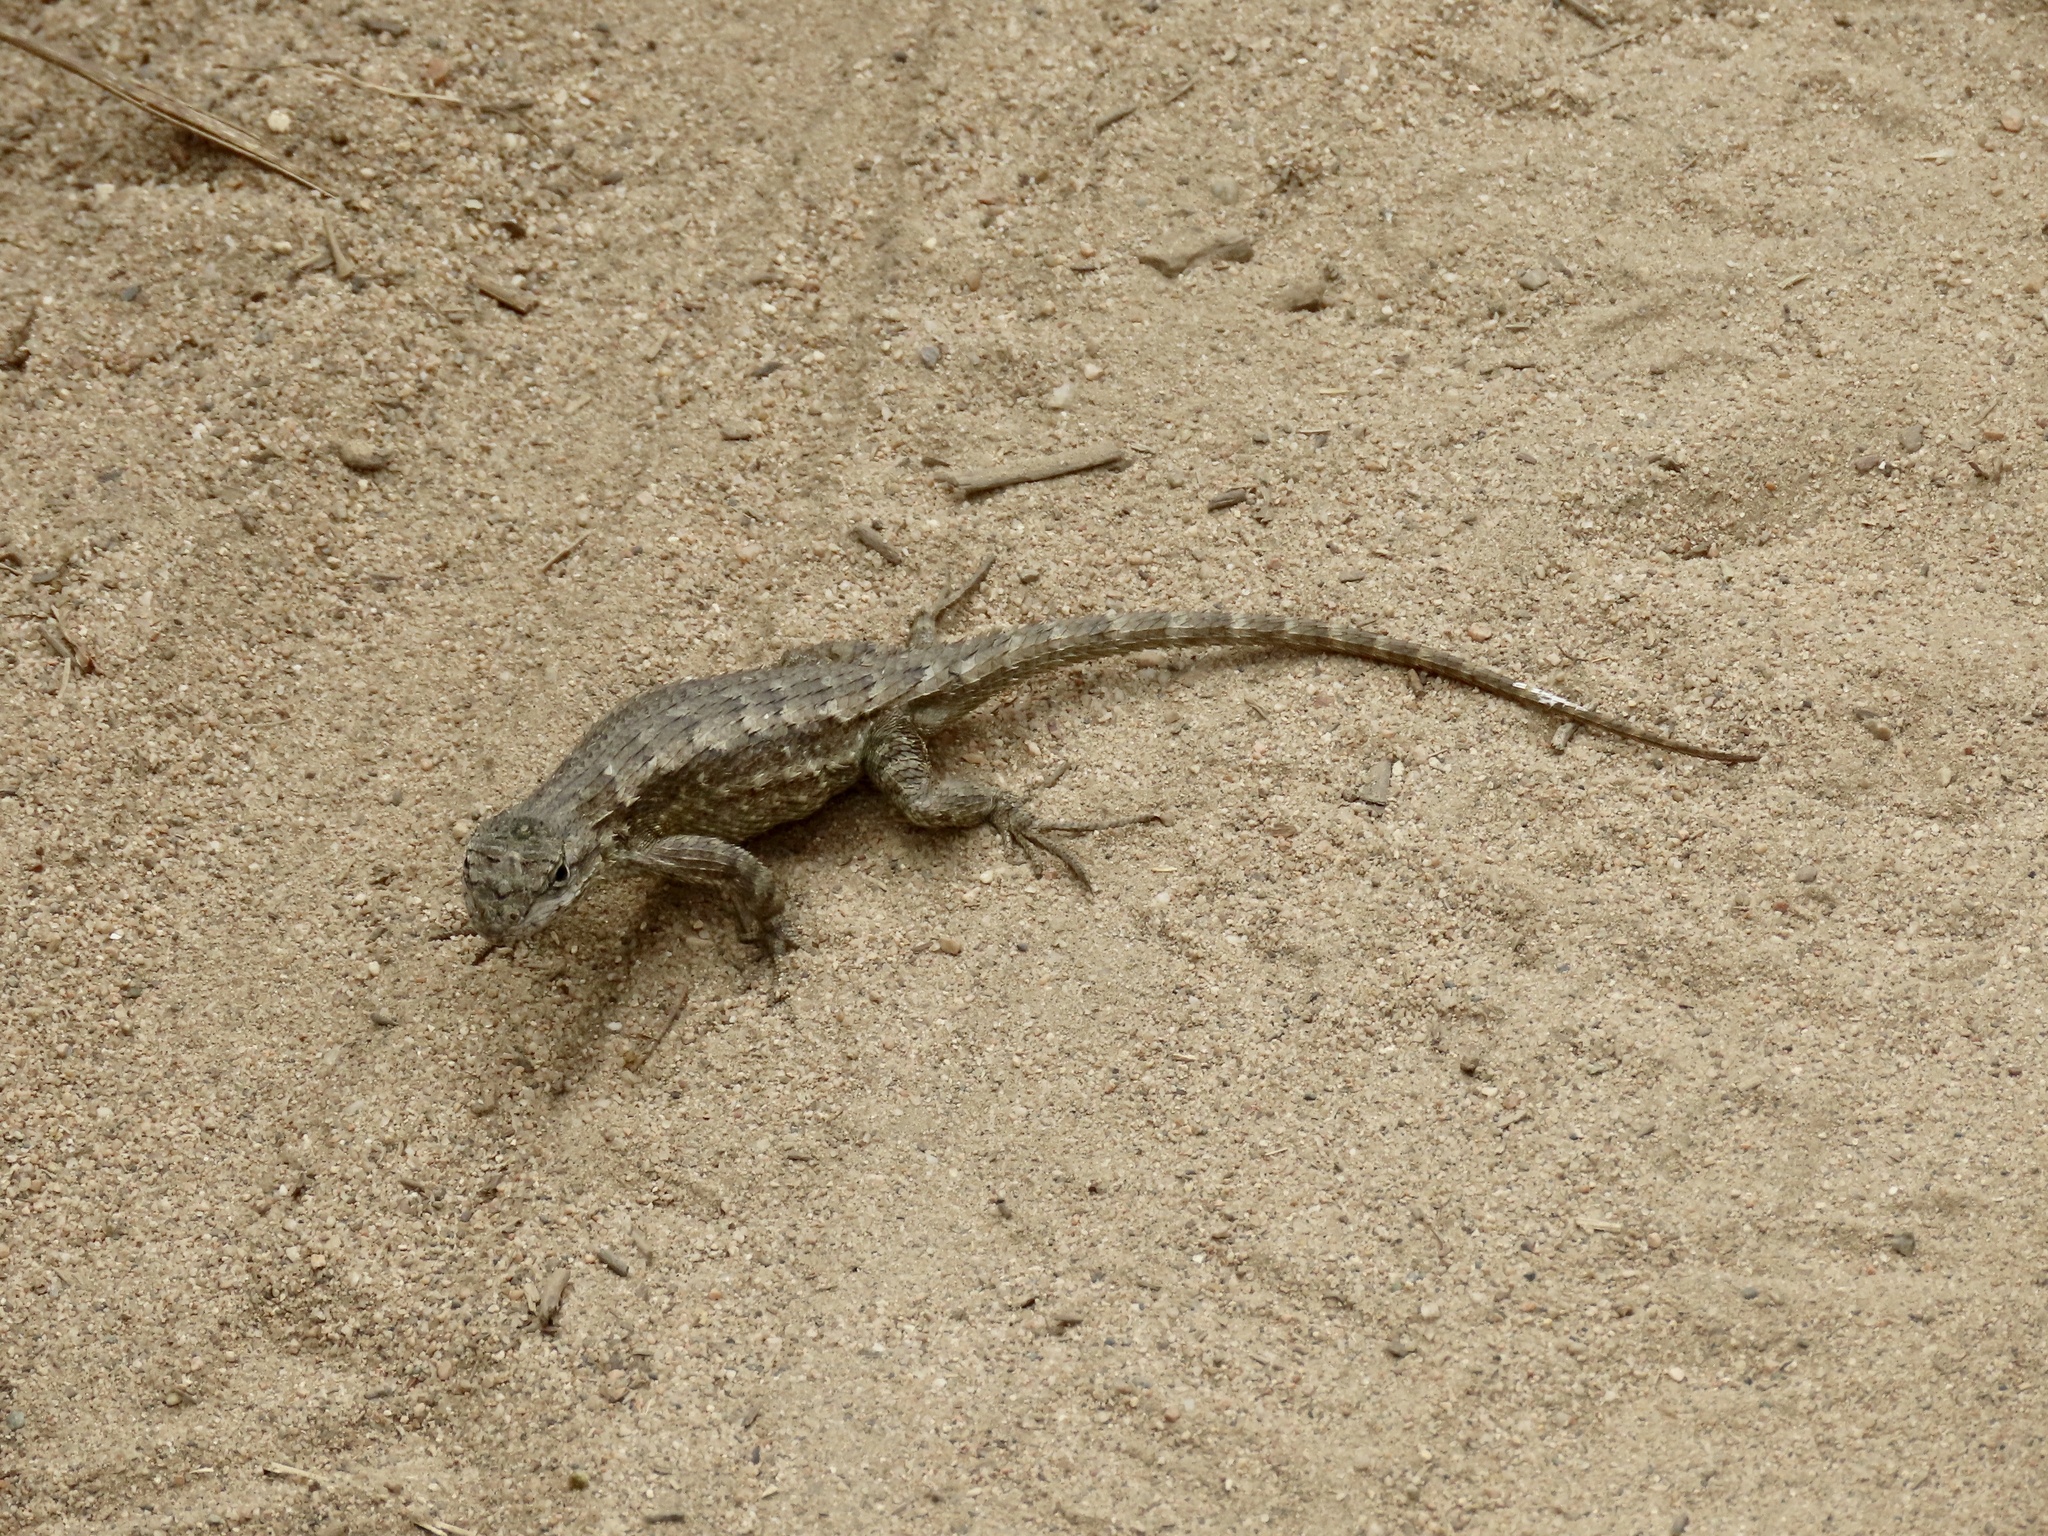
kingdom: Animalia
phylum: Chordata
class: Squamata
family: Phrynosomatidae
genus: Sceloporus
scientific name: Sceloporus occidentalis
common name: Western fence lizard
